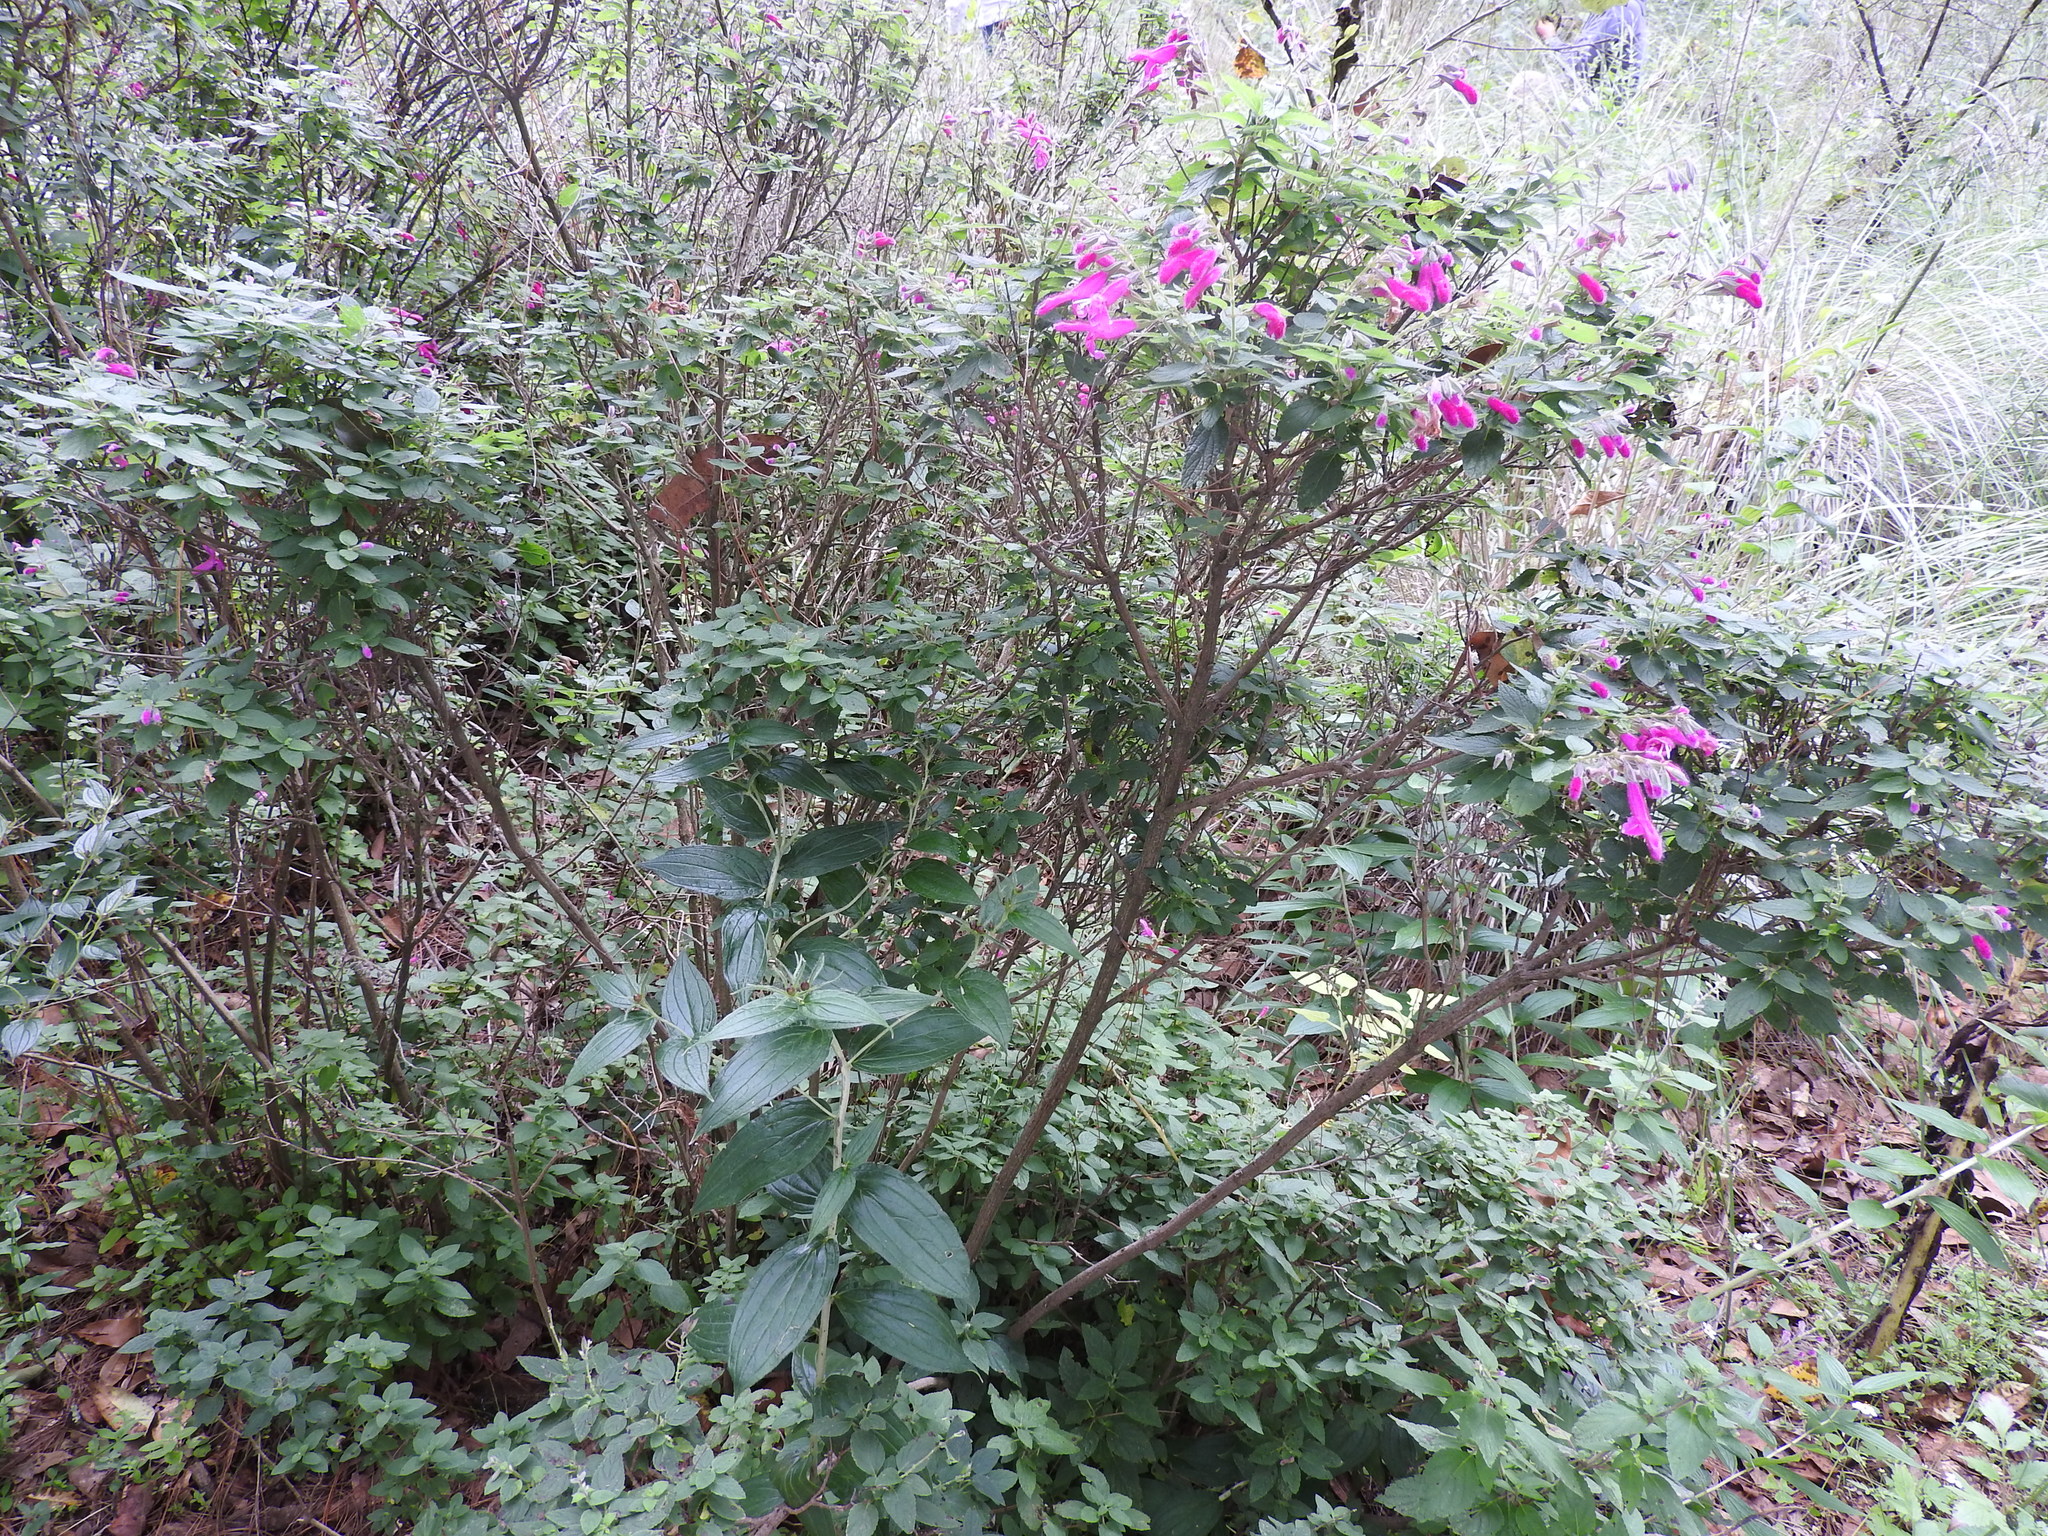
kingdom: Plantae
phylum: Tracheophyta
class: Magnoliopsida
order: Lamiales
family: Lamiaceae
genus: Salvia
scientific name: Salvia curviflora
